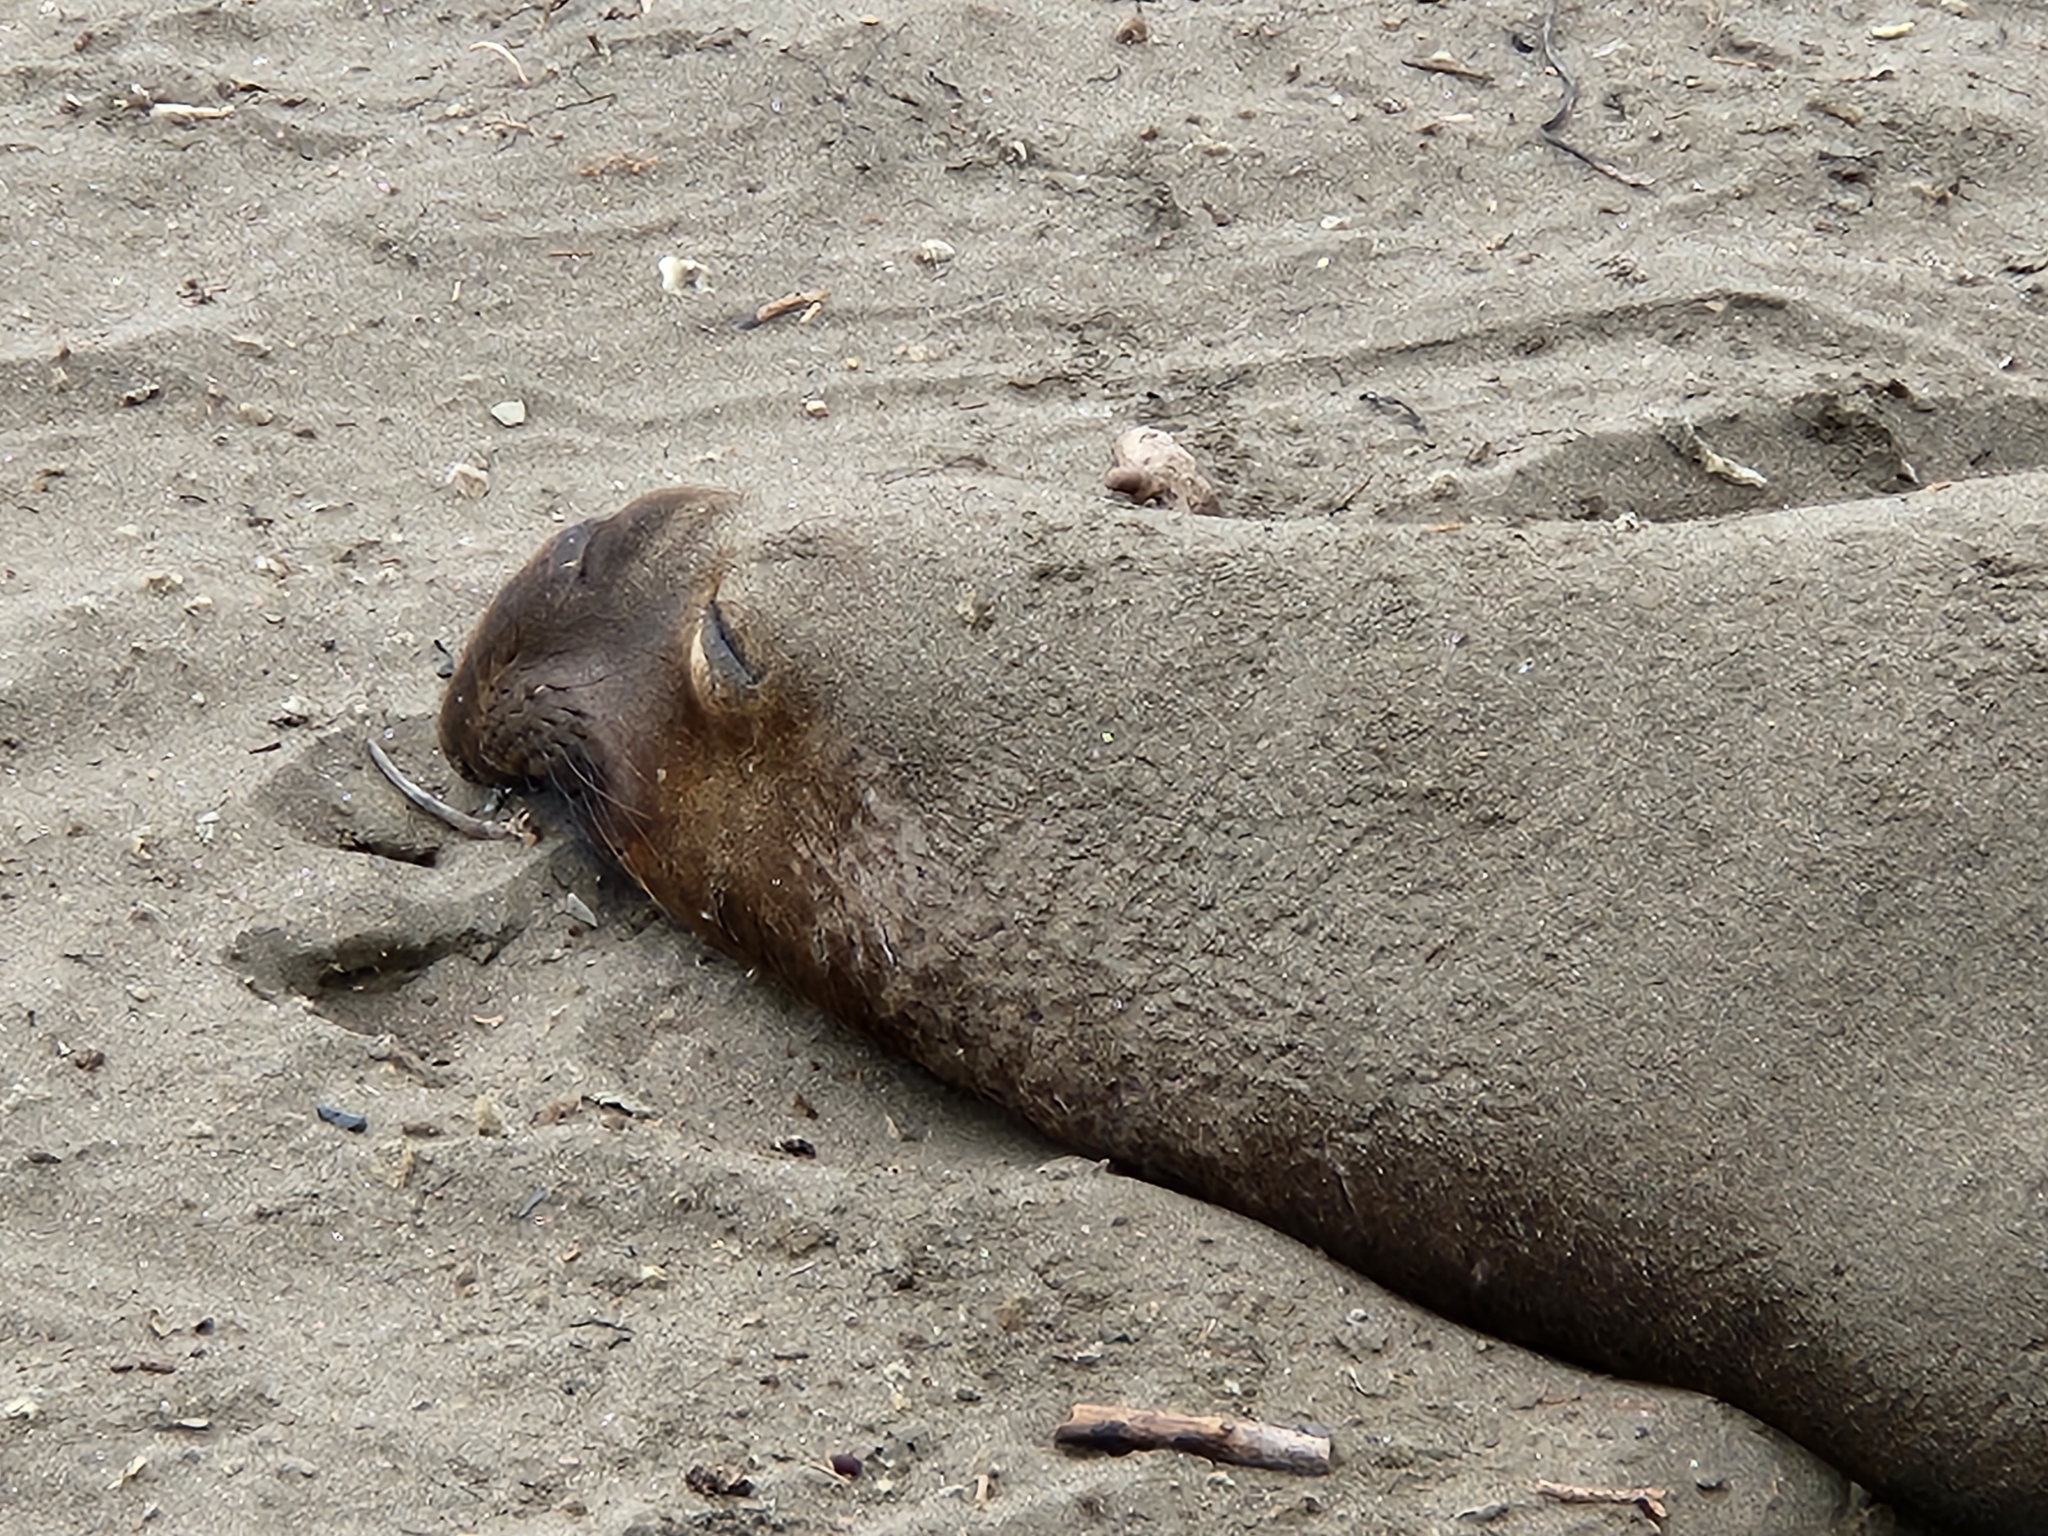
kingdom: Animalia
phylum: Chordata
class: Mammalia
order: Carnivora
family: Phocidae
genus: Mirounga
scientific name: Mirounga angustirostris
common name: Northern elephant seal
